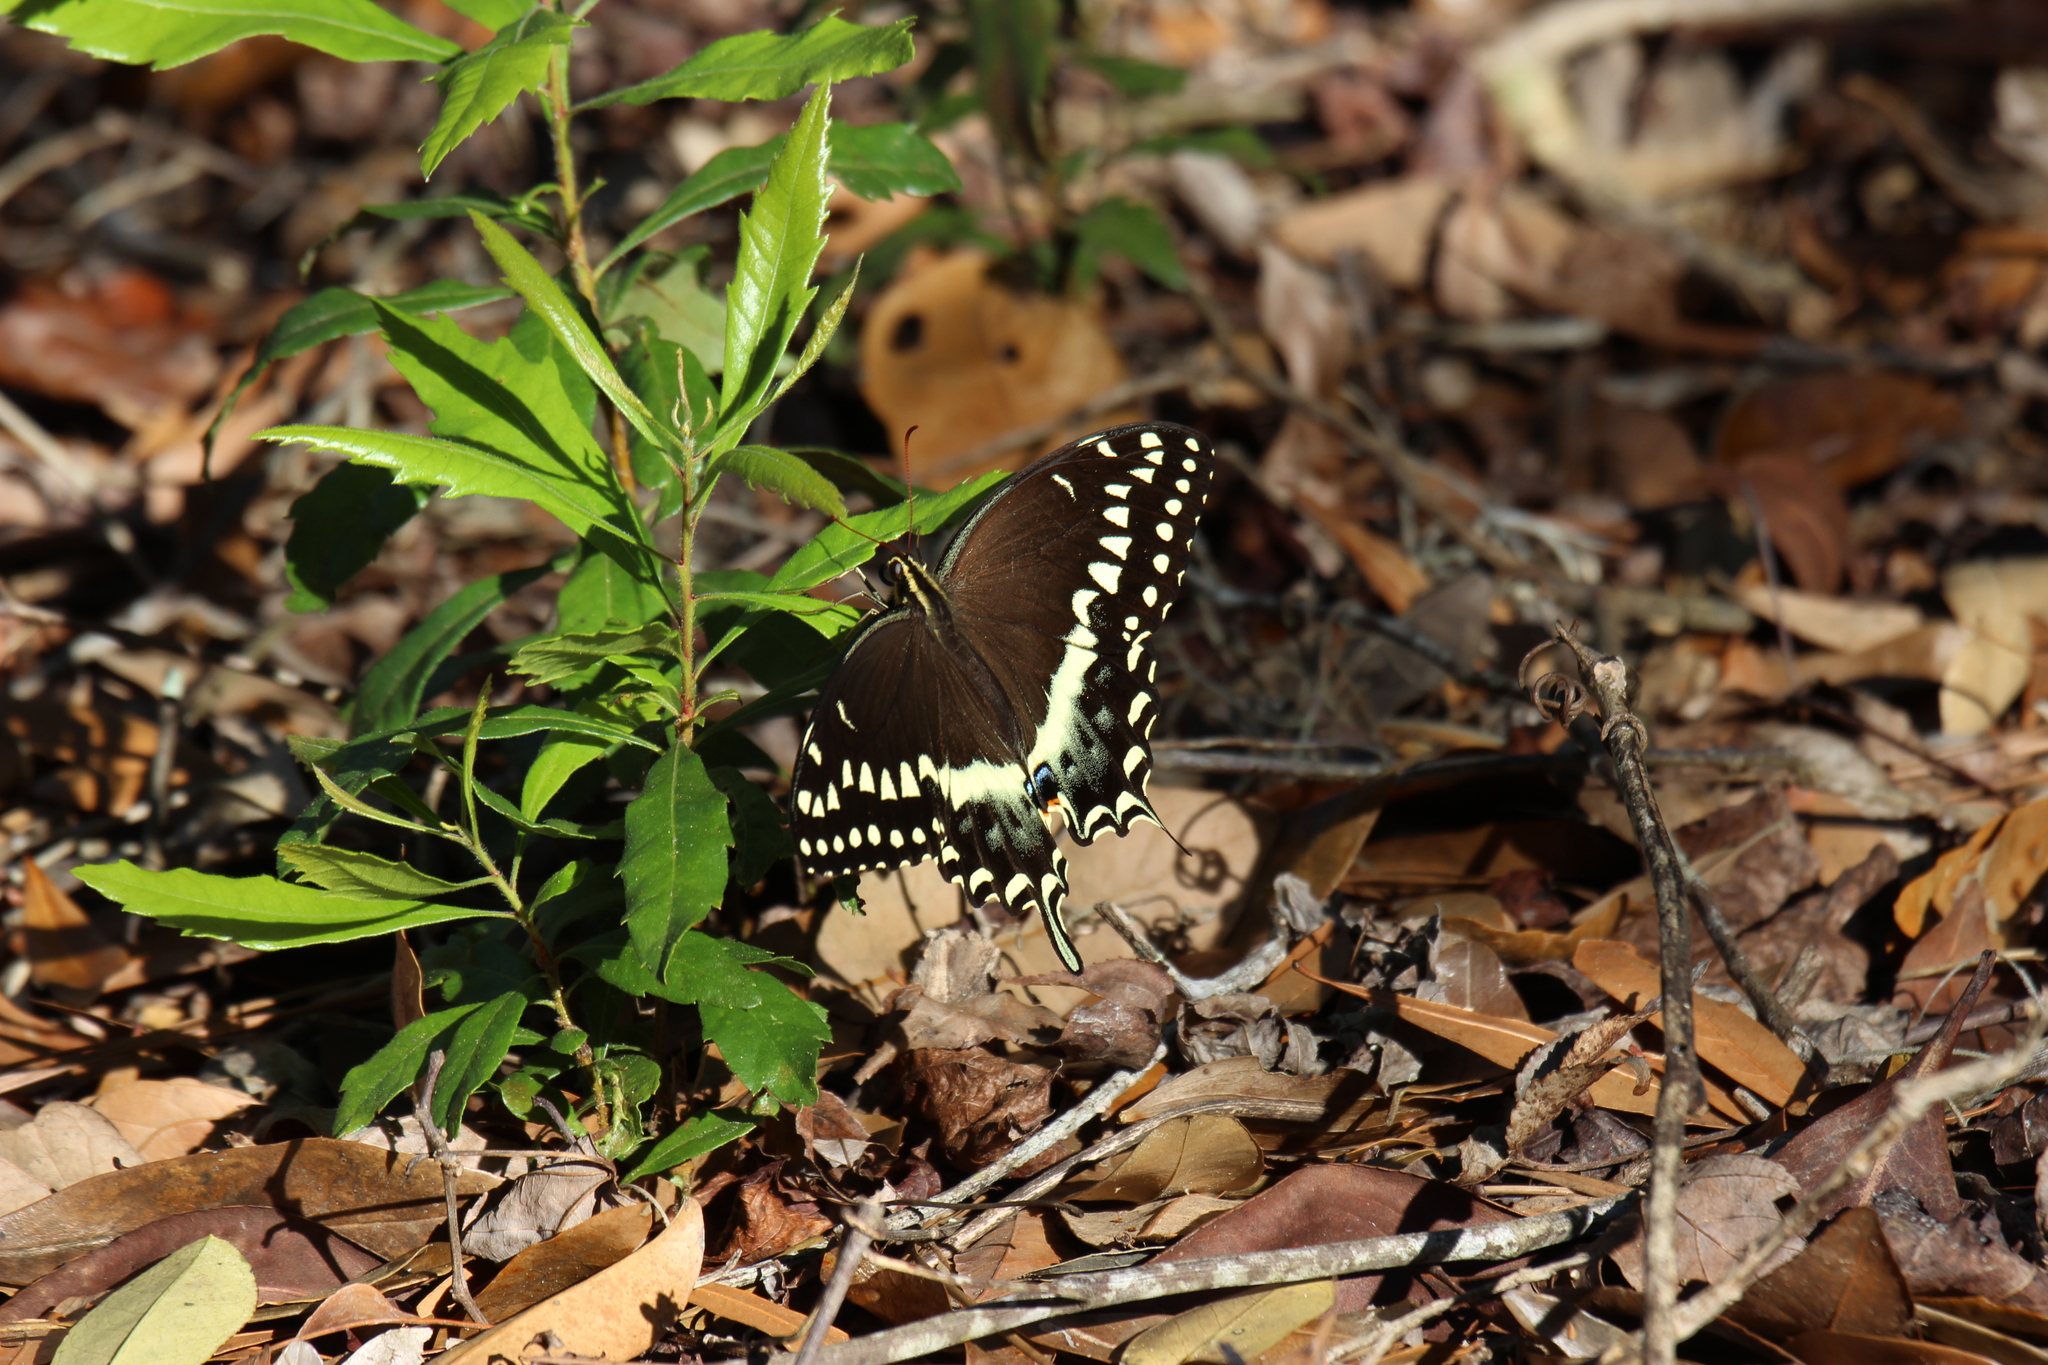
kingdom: Animalia
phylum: Arthropoda
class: Insecta
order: Lepidoptera
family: Papilionidae
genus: Papilio
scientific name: Papilio palamedes
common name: Palamedes swallowtail
